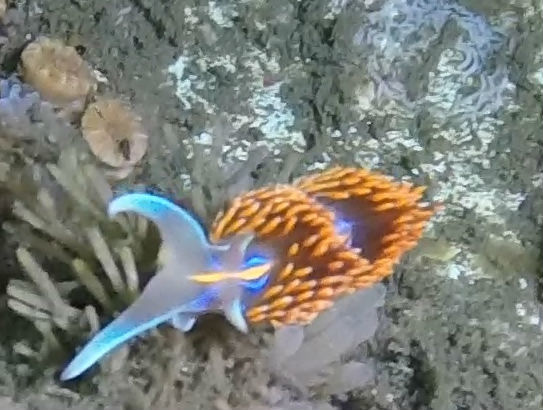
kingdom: Animalia
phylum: Mollusca
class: Gastropoda
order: Nudibranchia
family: Myrrhinidae
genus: Hermissenda
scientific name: Hermissenda opalescens
